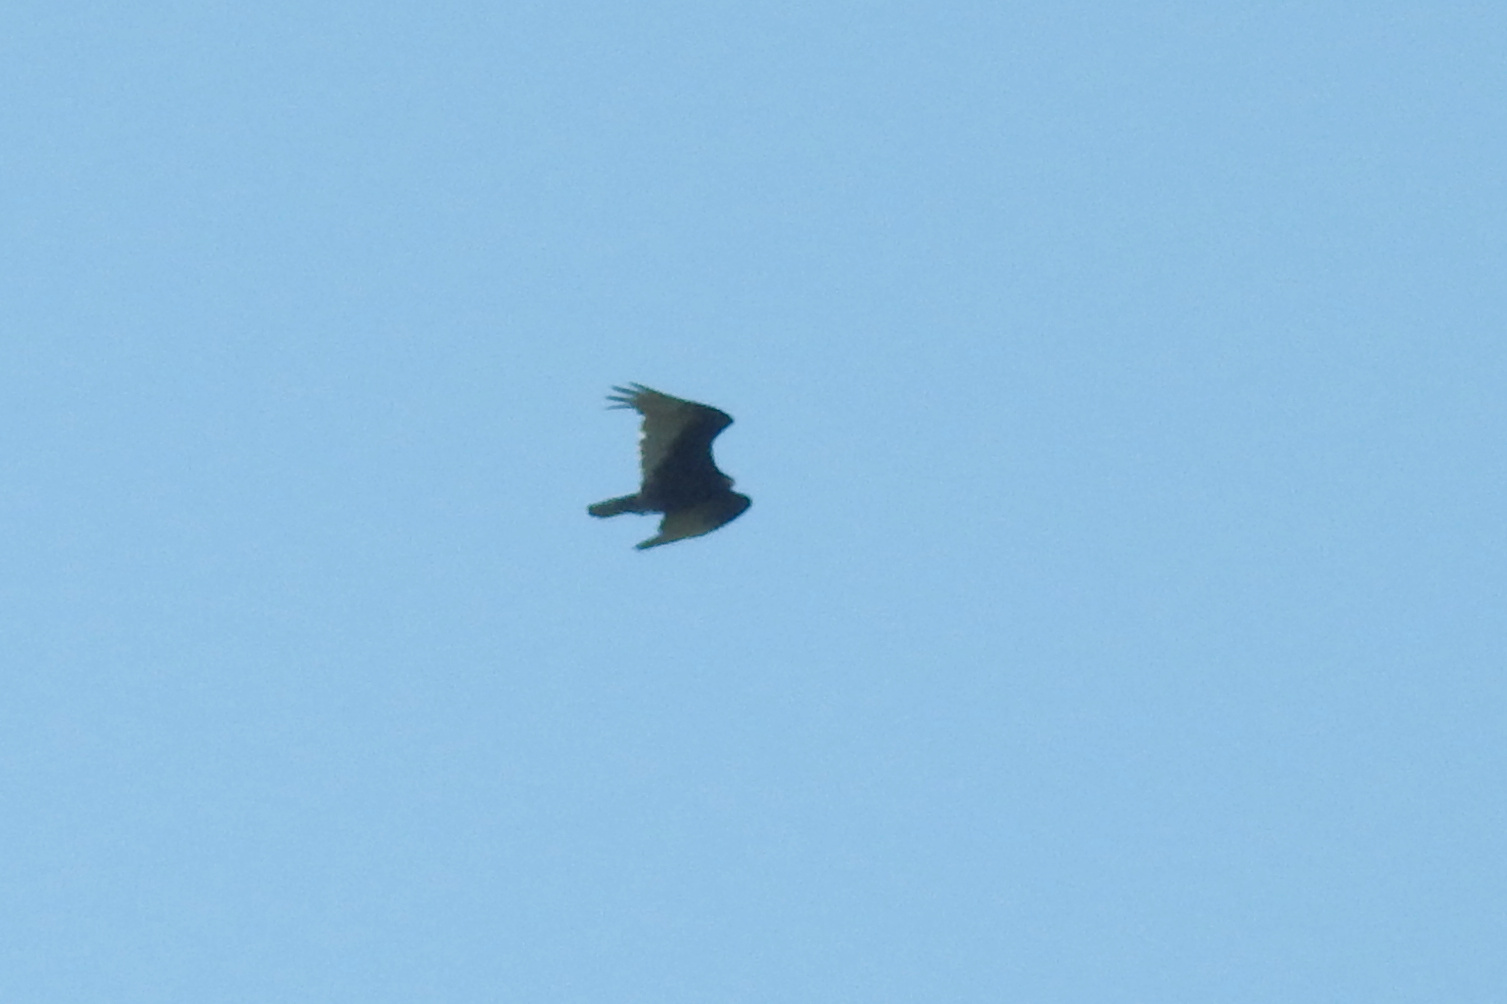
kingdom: Animalia
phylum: Chordata
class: Aves
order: Accipitriformes
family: Cathartidae
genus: Cathartes
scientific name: Cathartes aura
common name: Turkey vulture
